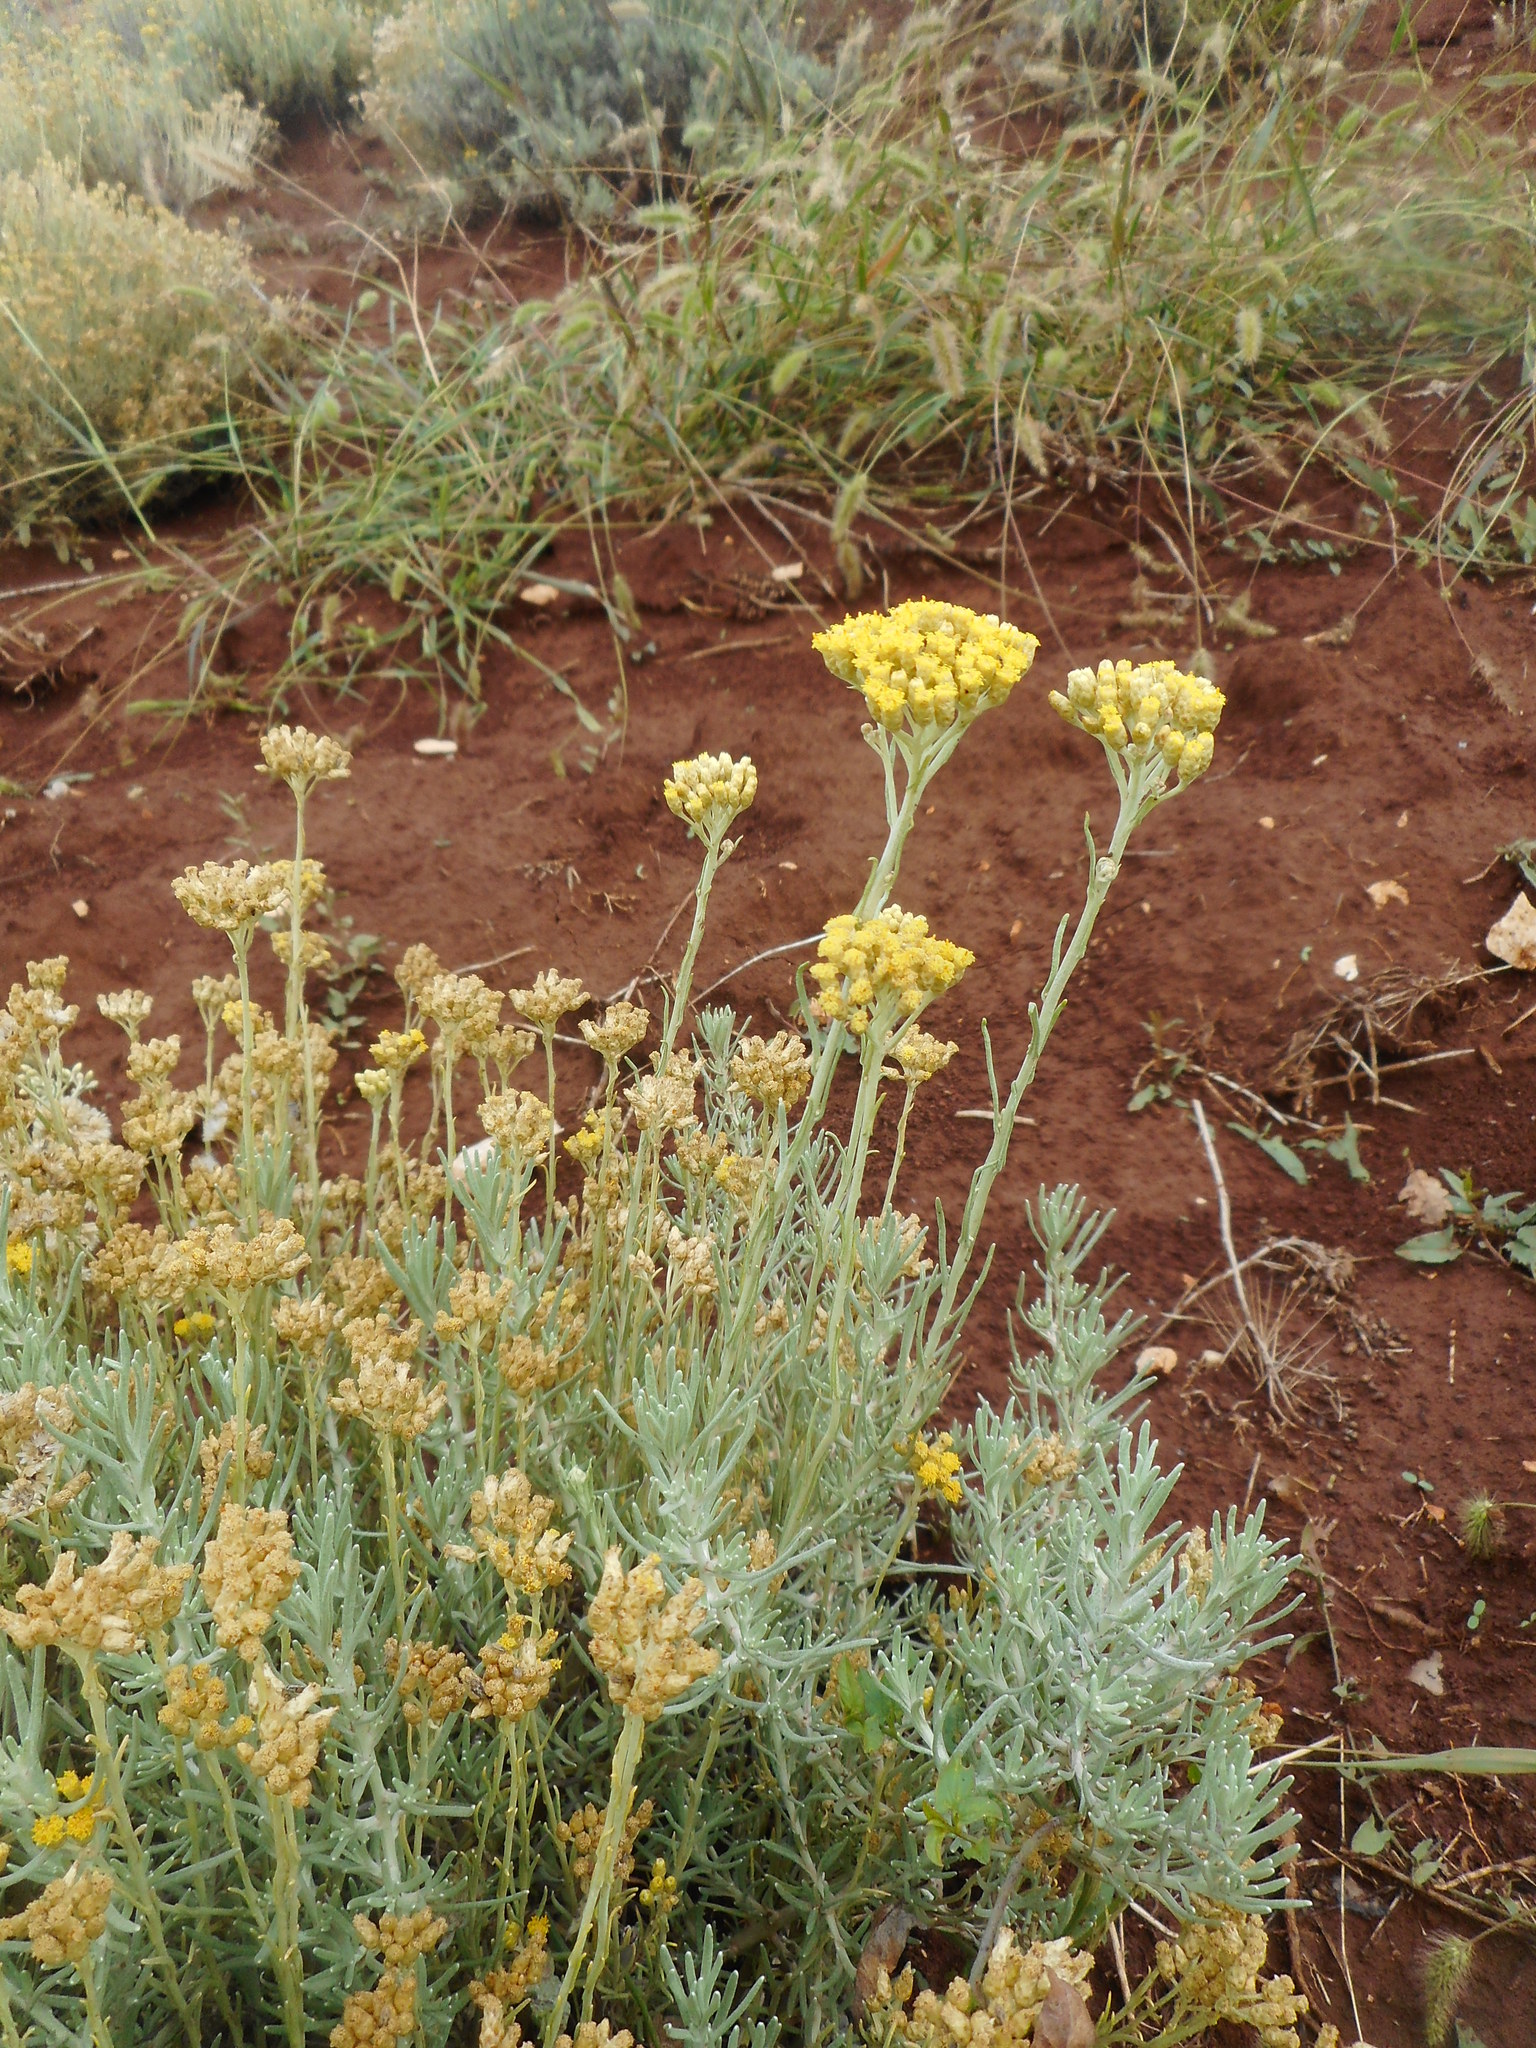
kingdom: Plantae
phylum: Tracheophyta
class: Magnoliopsida
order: Asterales
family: Asteraceae
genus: Helichrysum
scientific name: Helichrysum italicum
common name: Curryplant
